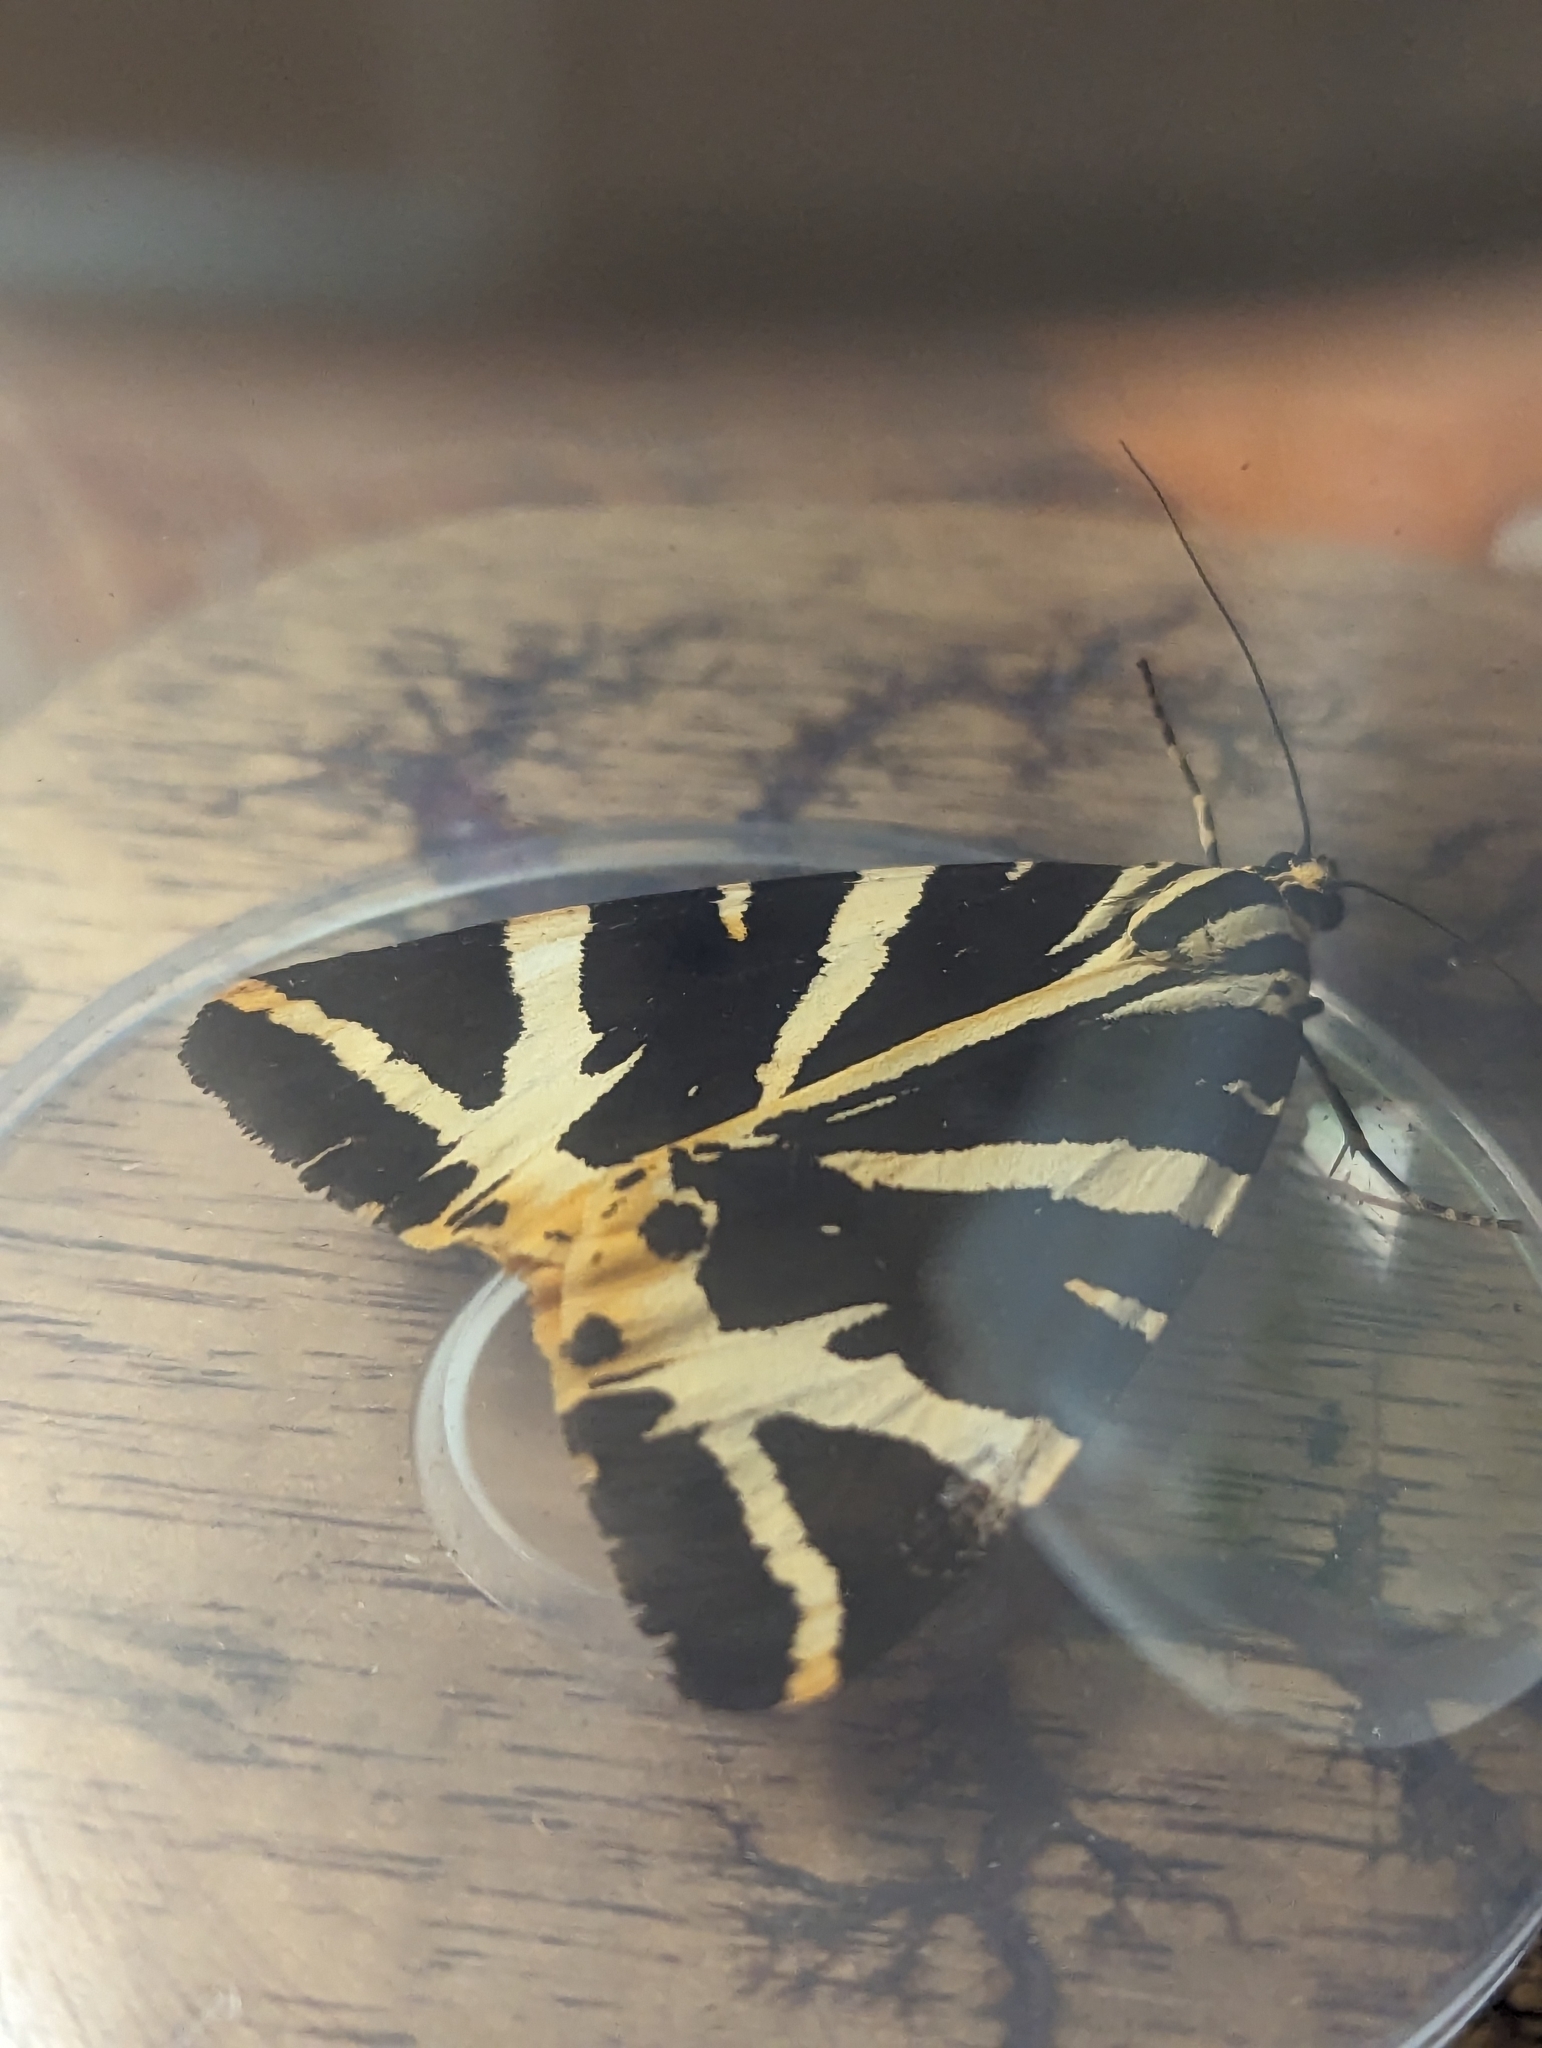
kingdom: Animalia
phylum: Arthropoda
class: Insecta
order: Lepidoptera
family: Erebidae
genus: Euplagia
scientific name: Euplagia quadripunctaria
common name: Jersey tiger
